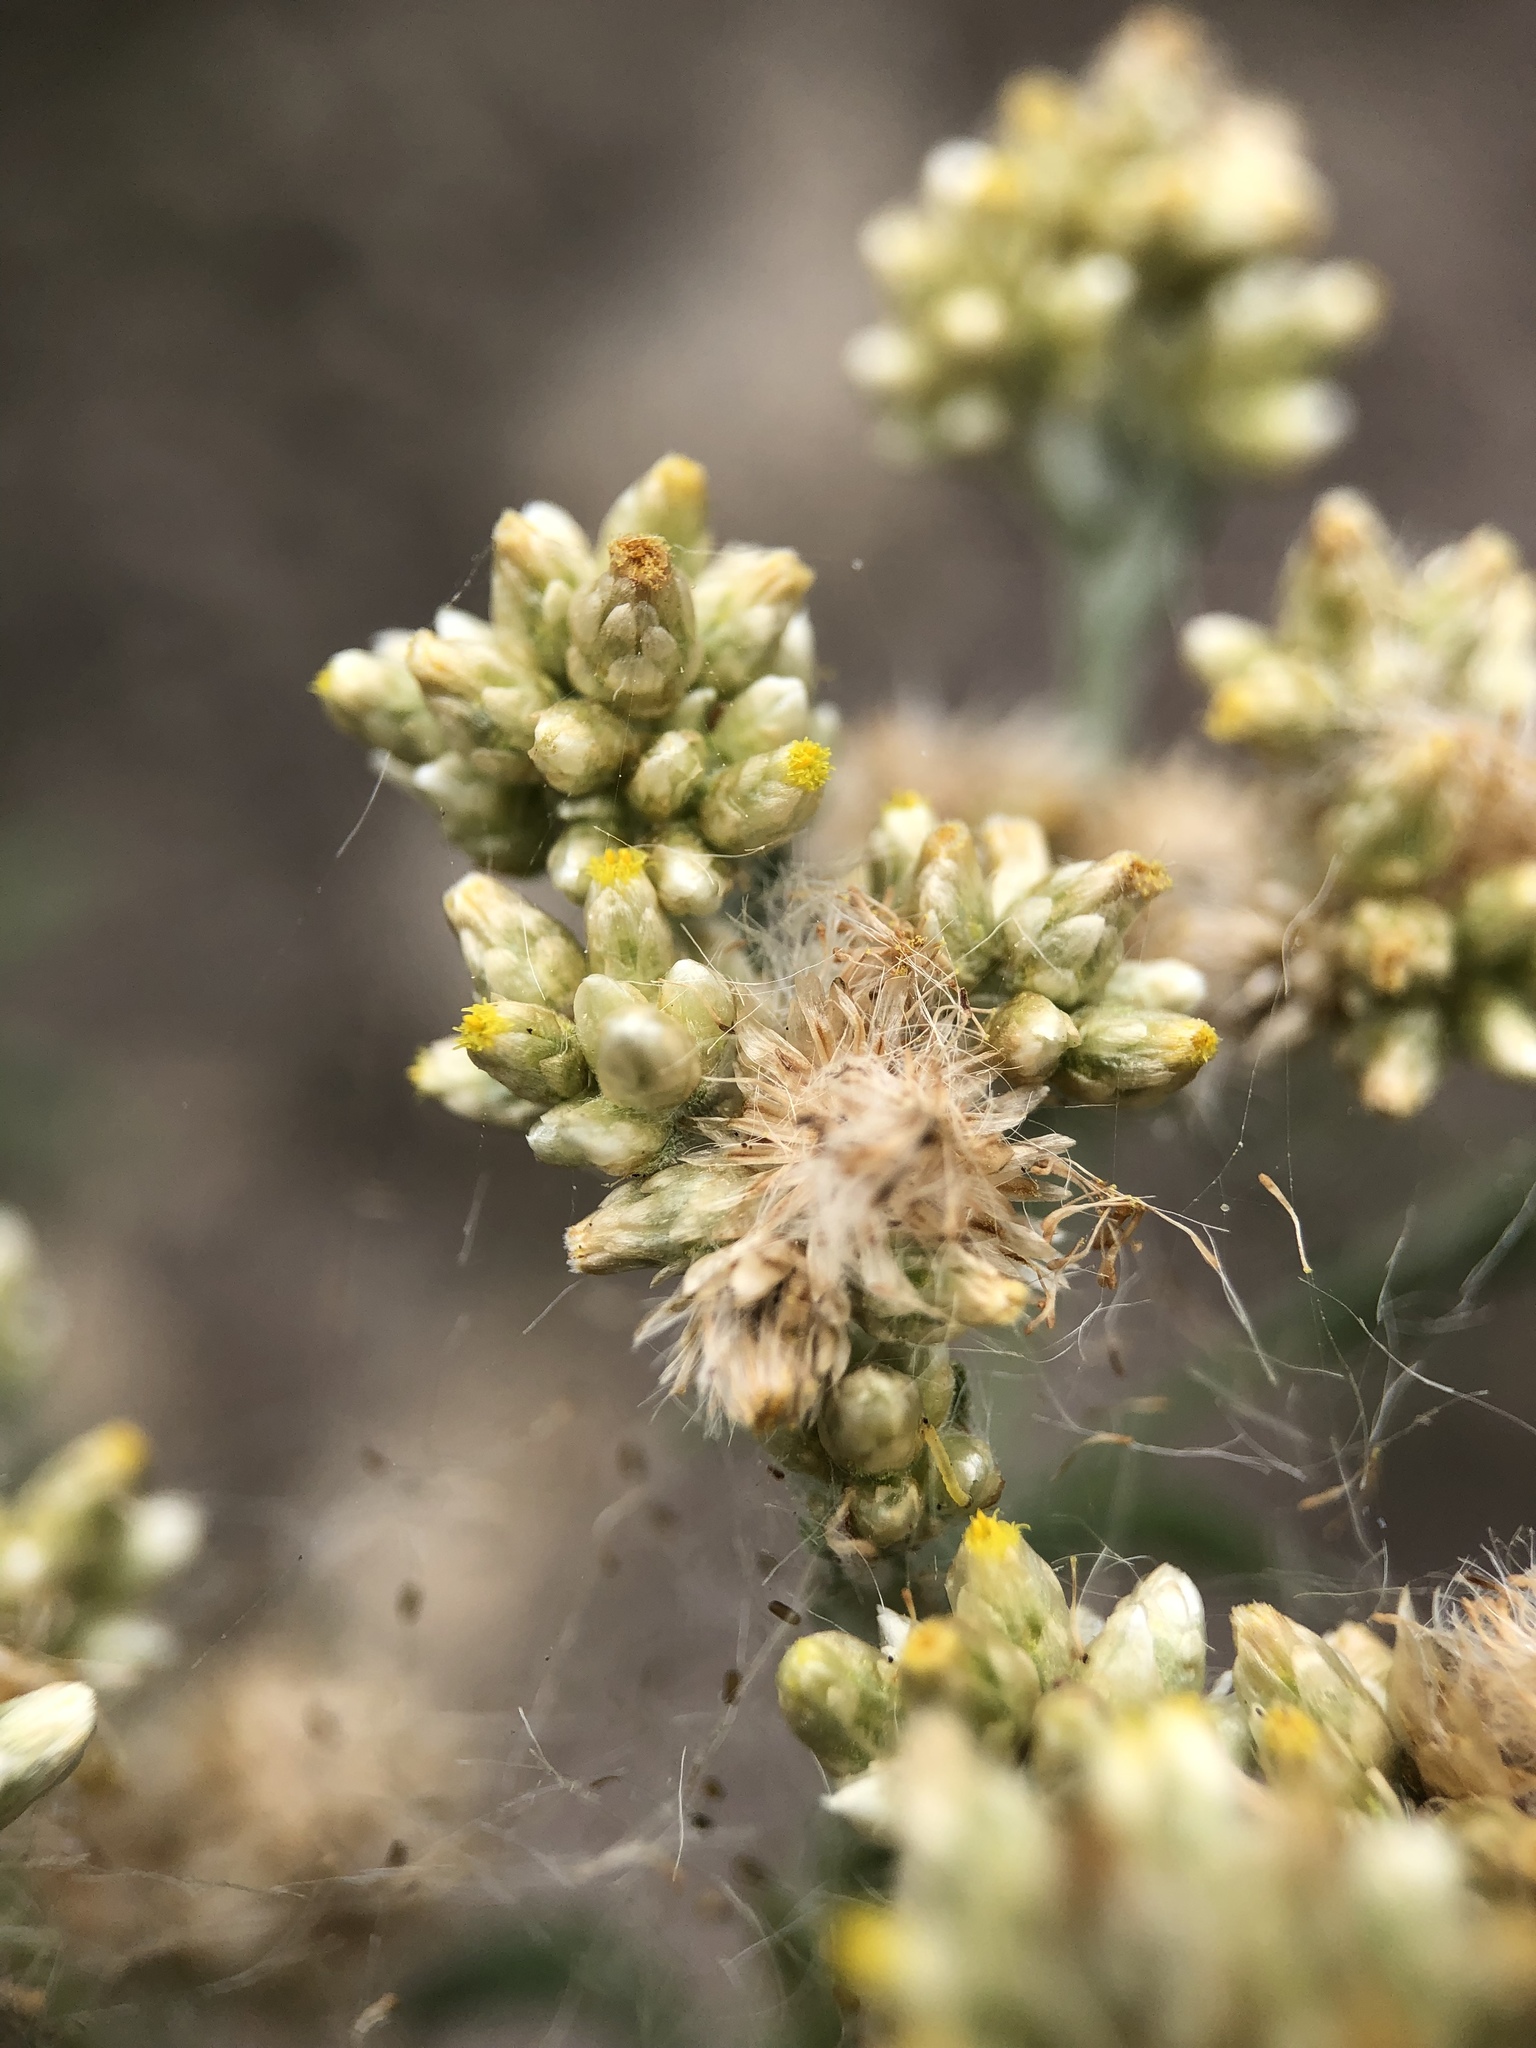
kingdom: Plantae
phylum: Tracheophyta
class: Magnoliopsida
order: Asterales
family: Asteraceae
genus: Helichrysum
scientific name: Helichrysum luteoalbum
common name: Daisy
